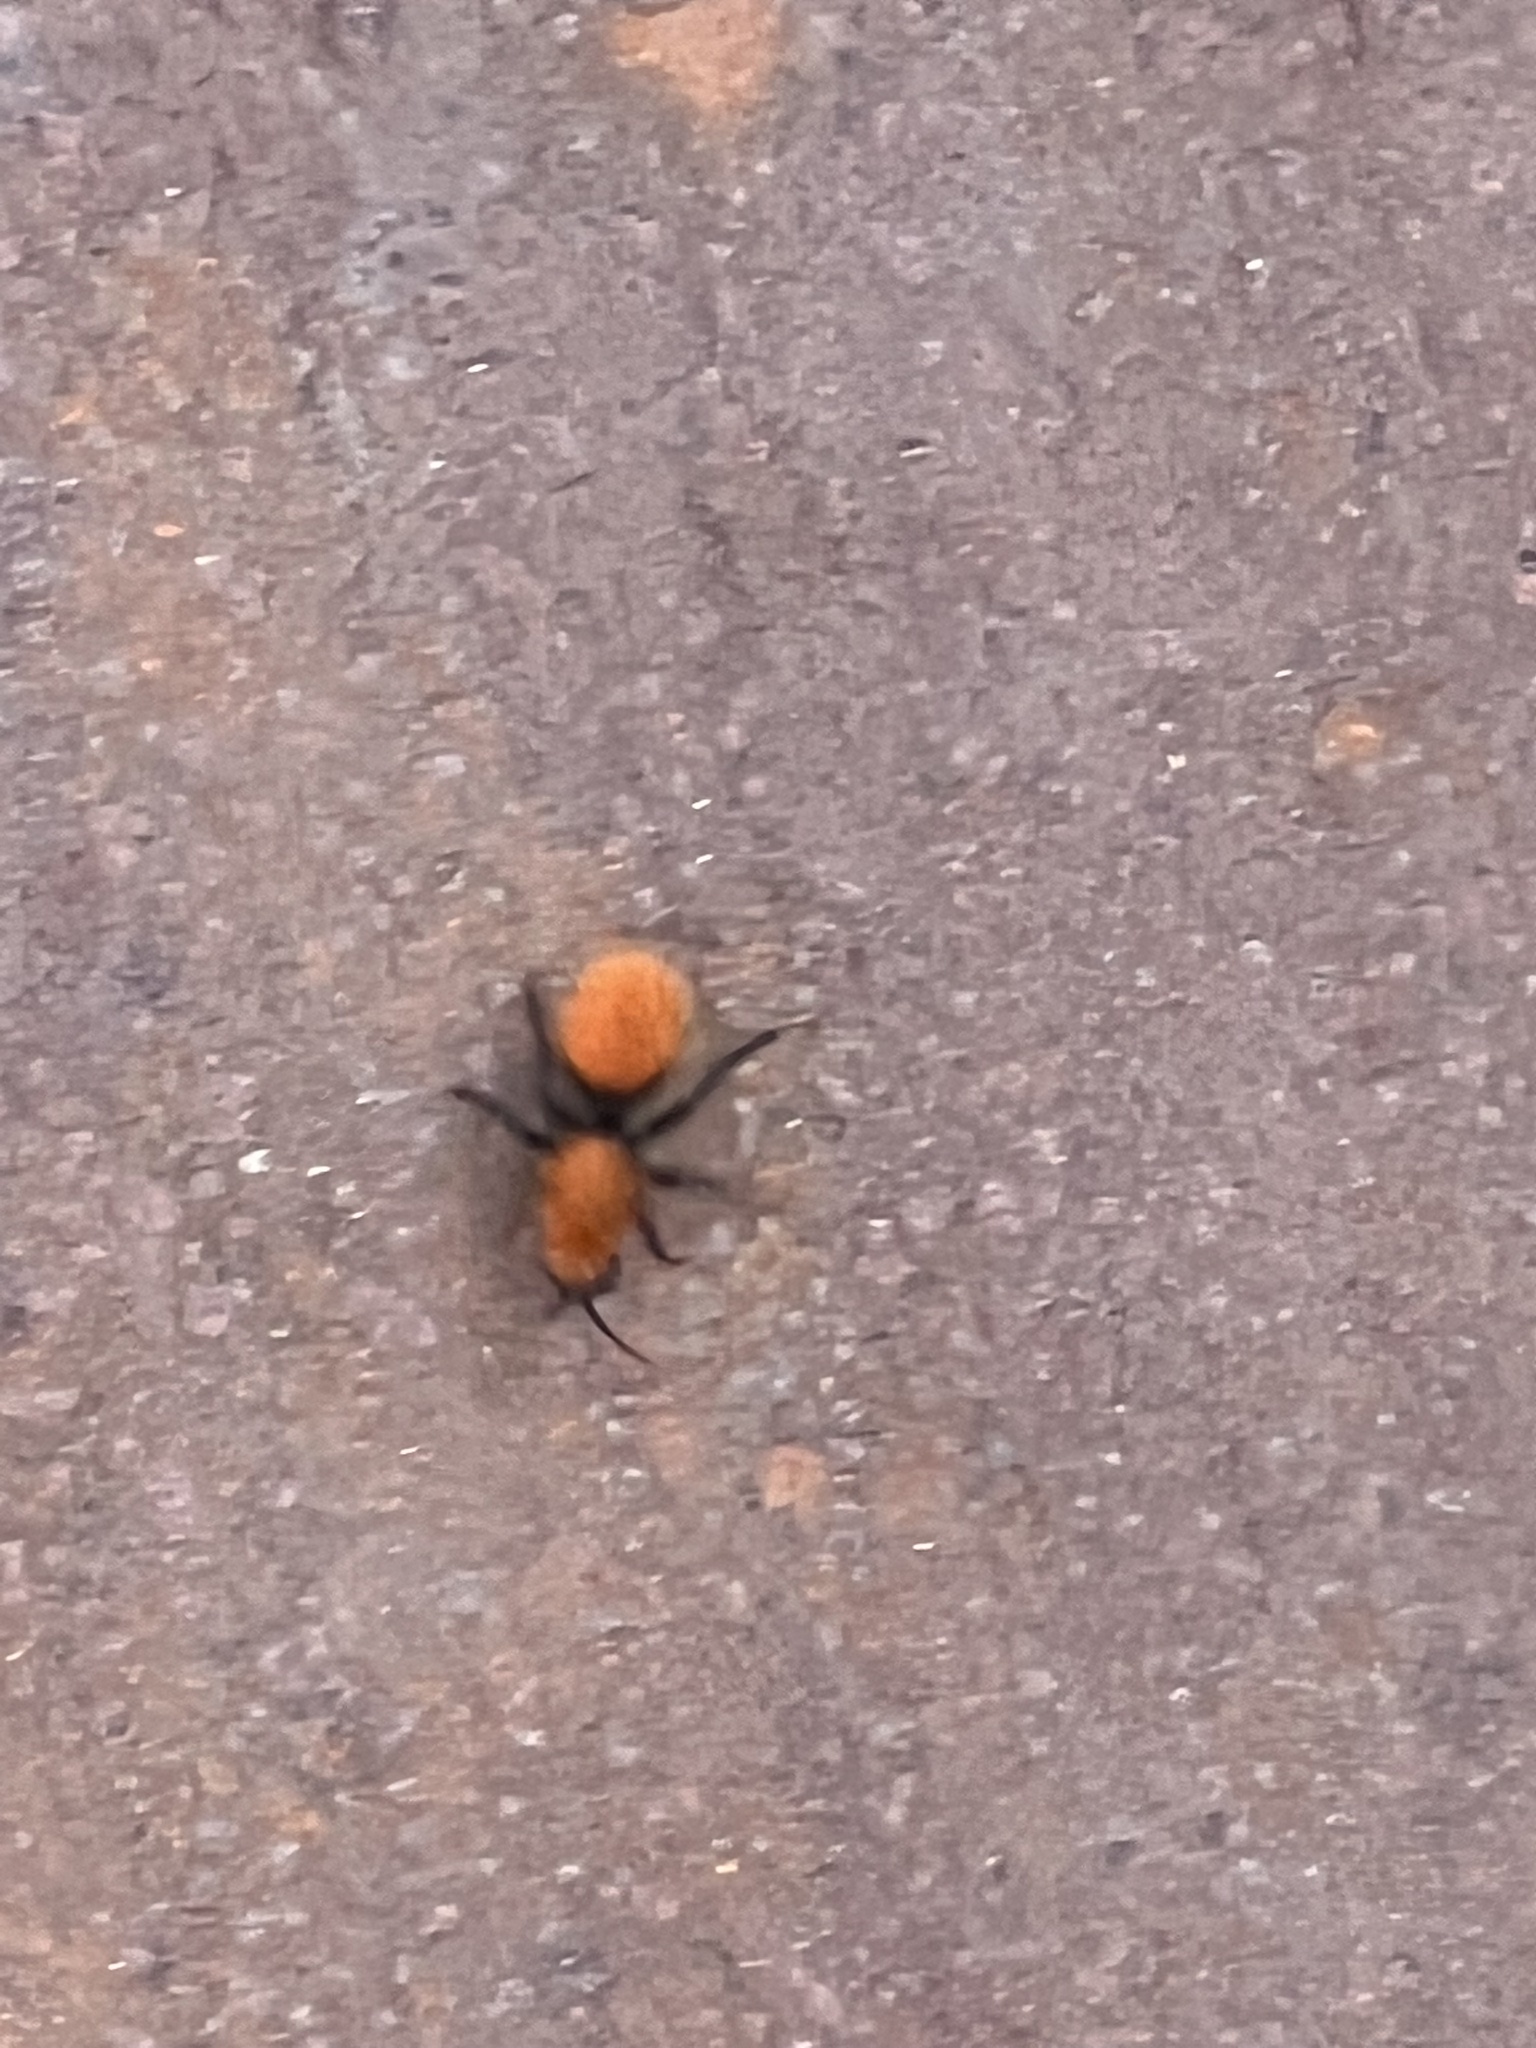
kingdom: Animalia
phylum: Arthropoda
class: Insecta
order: Hymenoptera
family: Mutillidae
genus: Dasymutilla
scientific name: Dasymutilla vestita
